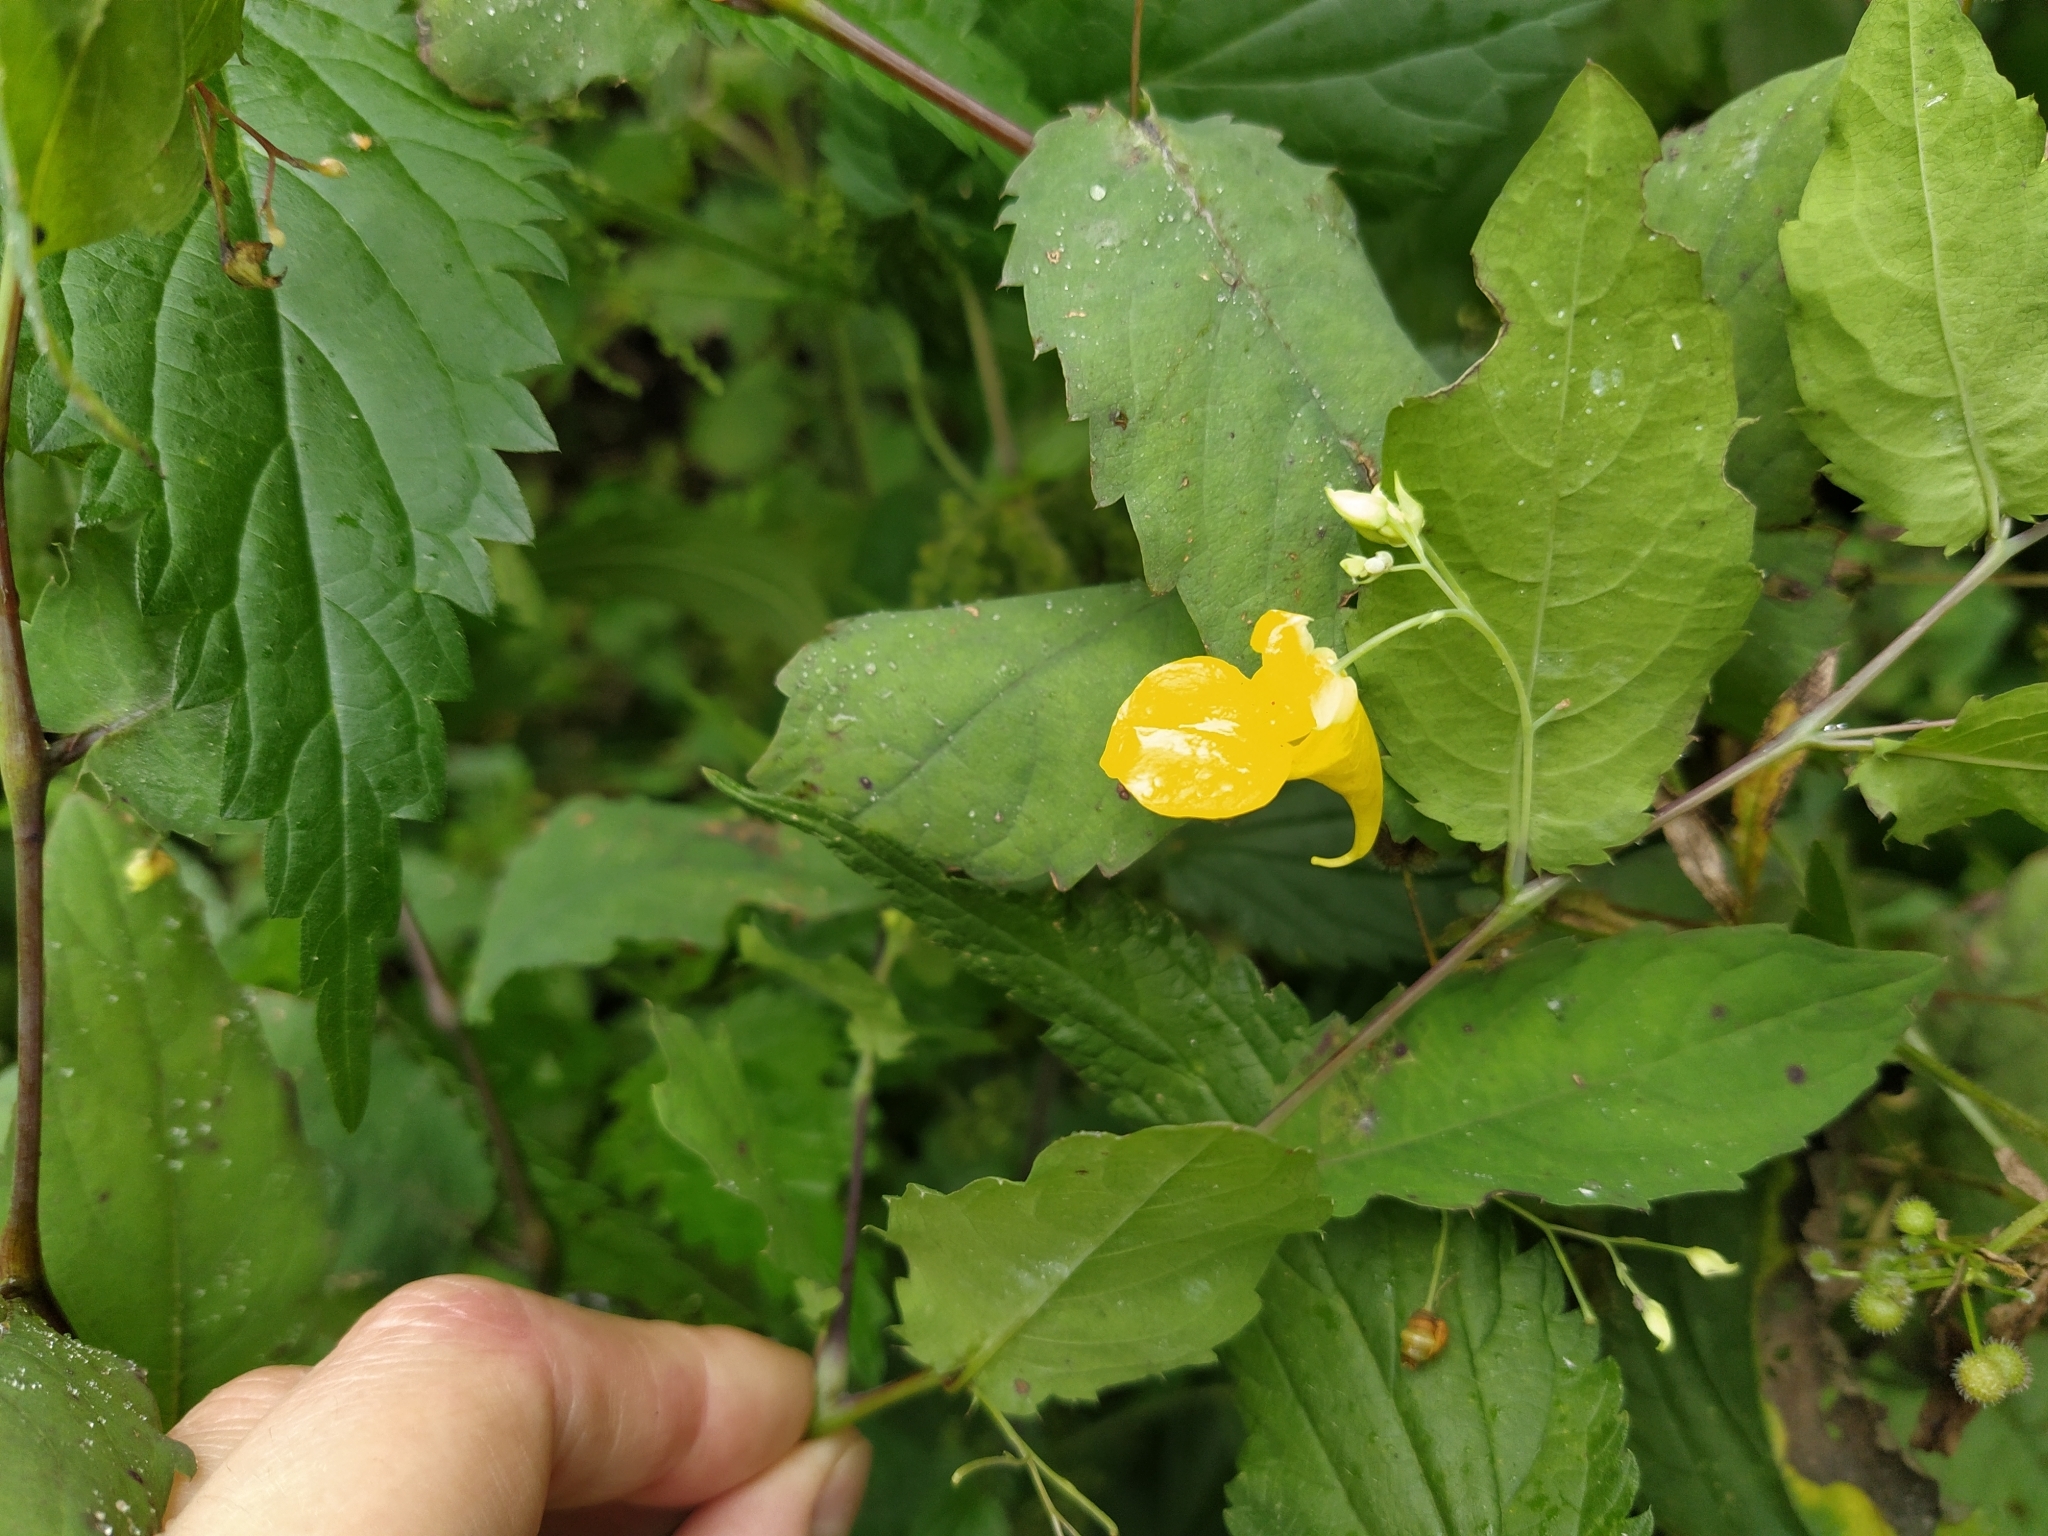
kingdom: Plantae
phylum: Tracheophyta
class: Magnoliopsida
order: Ericales
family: Balsaminaceae
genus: Impatiens
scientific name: Impatiens noli-tangere
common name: Touch-me-not balsam
